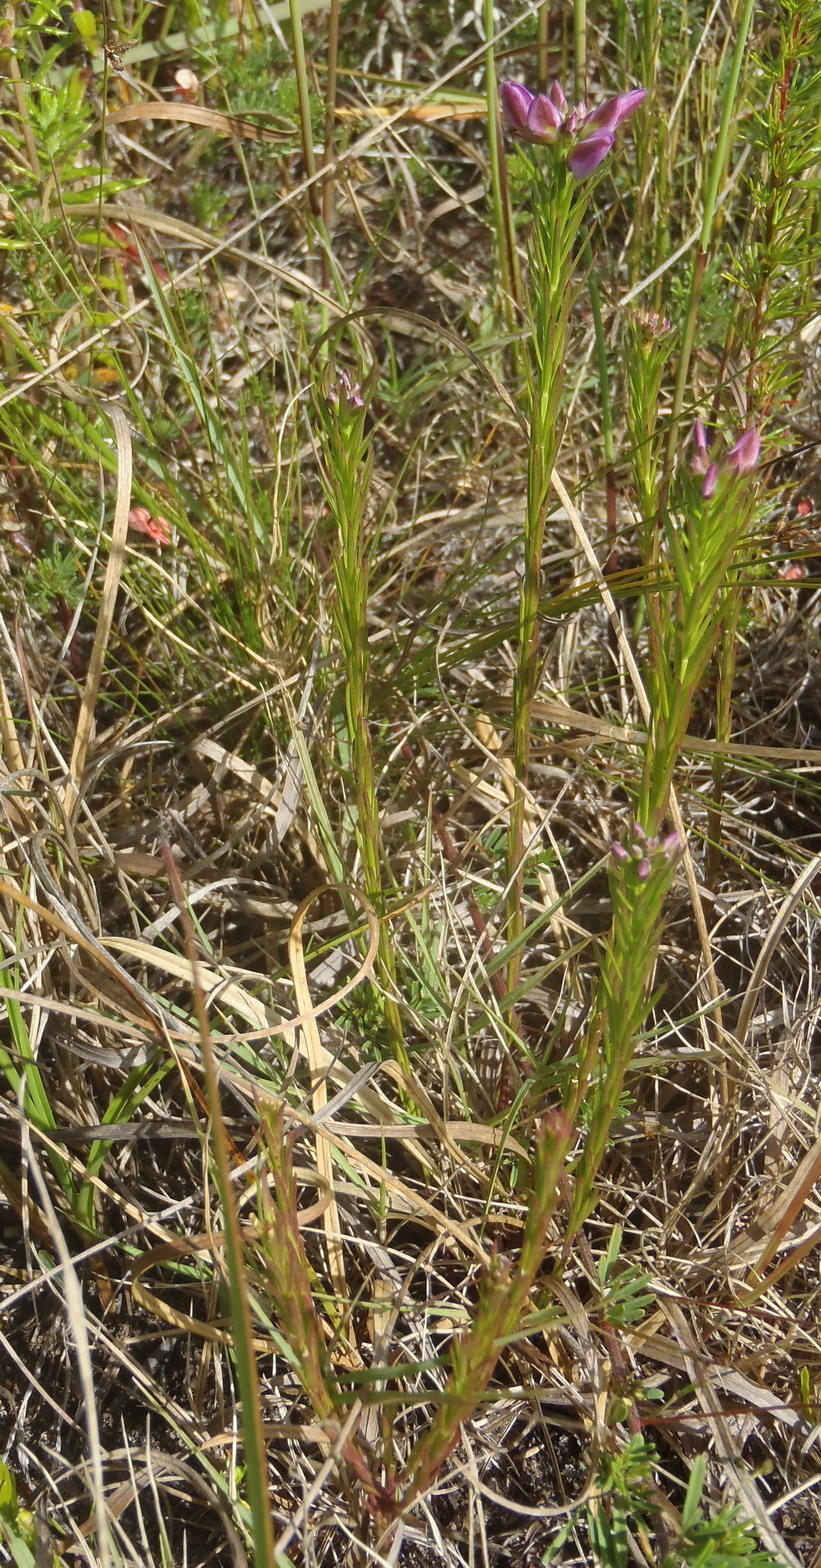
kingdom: Plantae
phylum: Tracheophyta
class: Magnoliopsida
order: Fabales
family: Polygalaceae
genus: Polygala
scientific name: Polygala ericifolia
